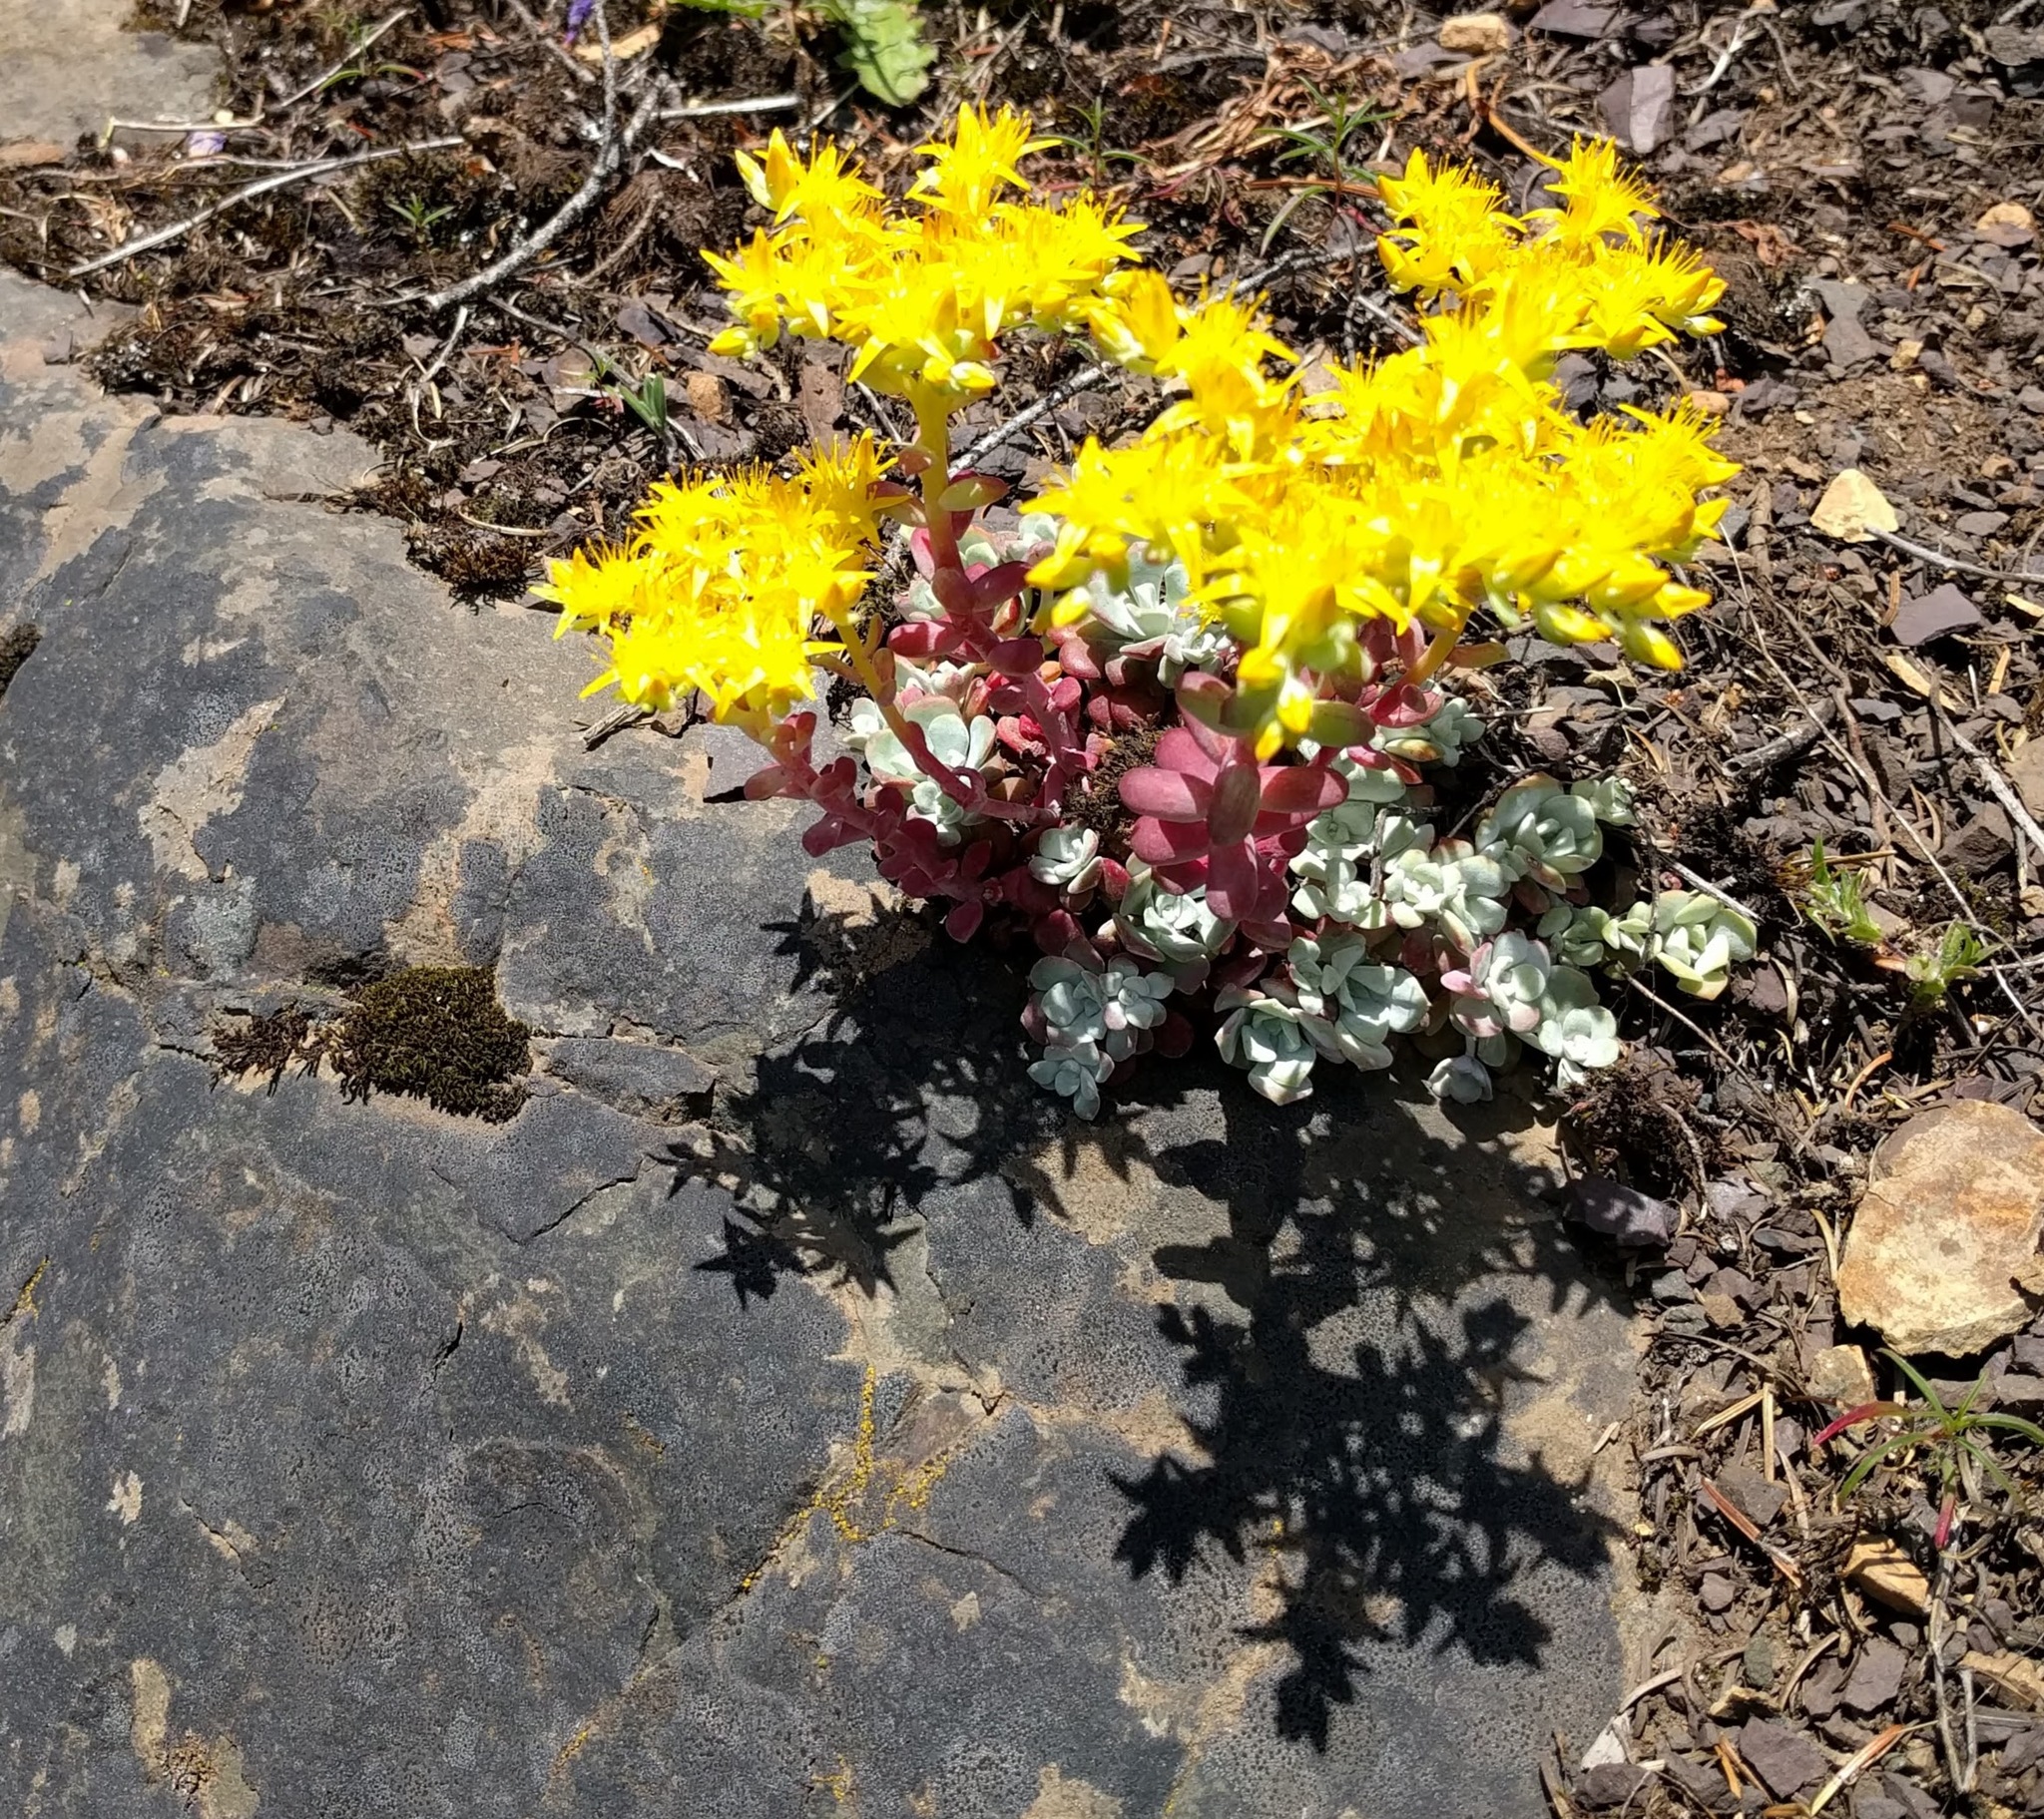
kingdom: Plantae
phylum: Tracheophyta
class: Magnoliopsida
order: Saxifragales
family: Crassulaceae
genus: Sedum
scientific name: Sedum spathulifolium
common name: Colorado stonecrop
